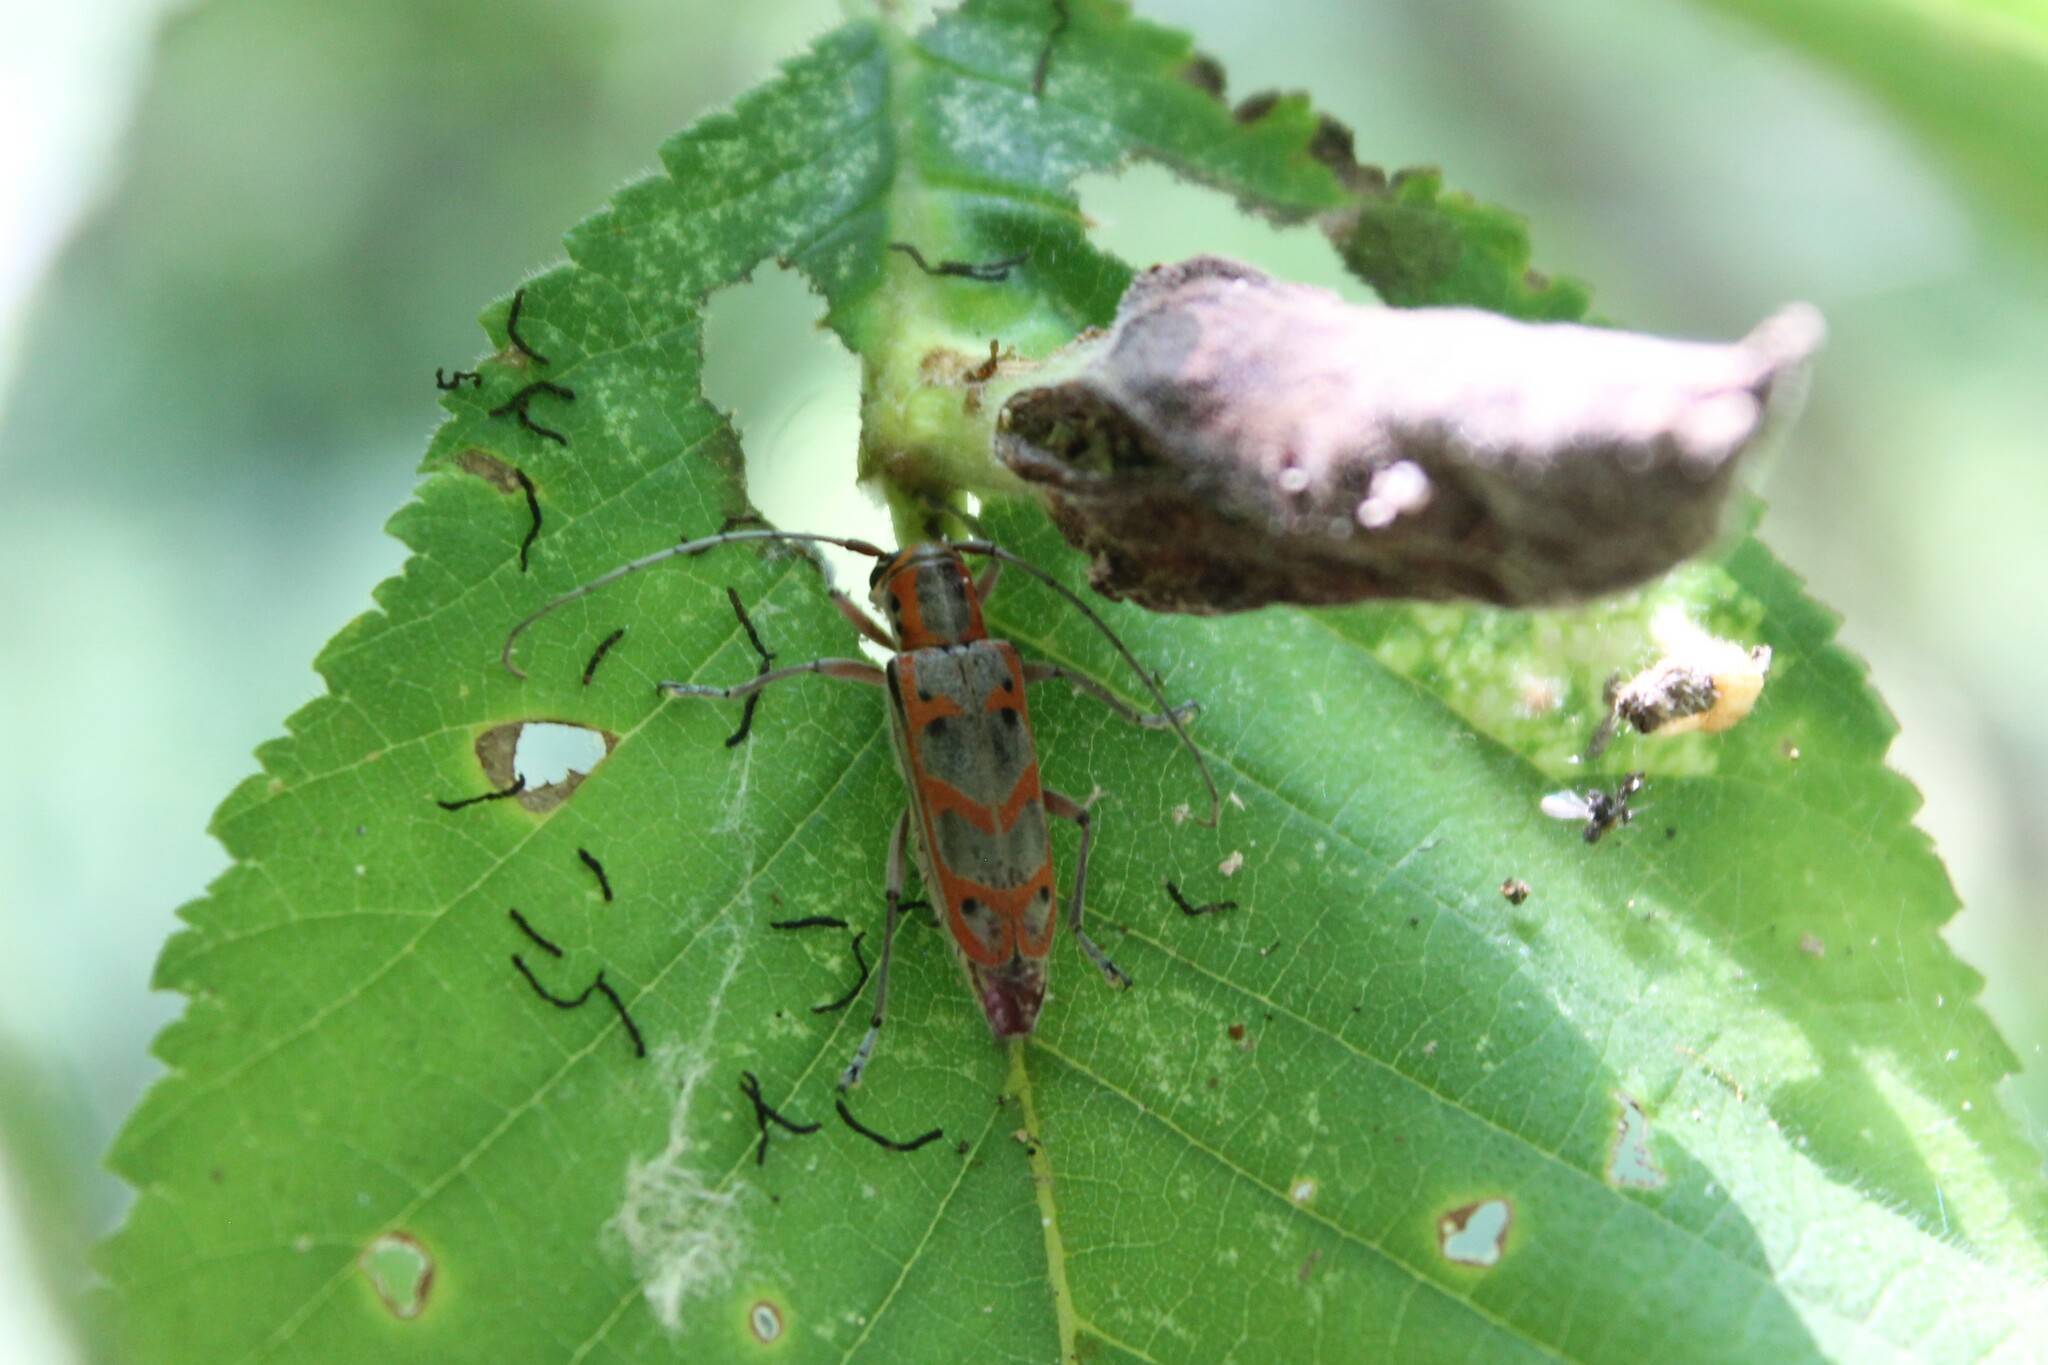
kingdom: Animalia
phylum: Arthropoda
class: Insecta
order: Coleoptera
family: Cerambycidae
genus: Saperda
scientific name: Saperda tridentata
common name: Elm borer
